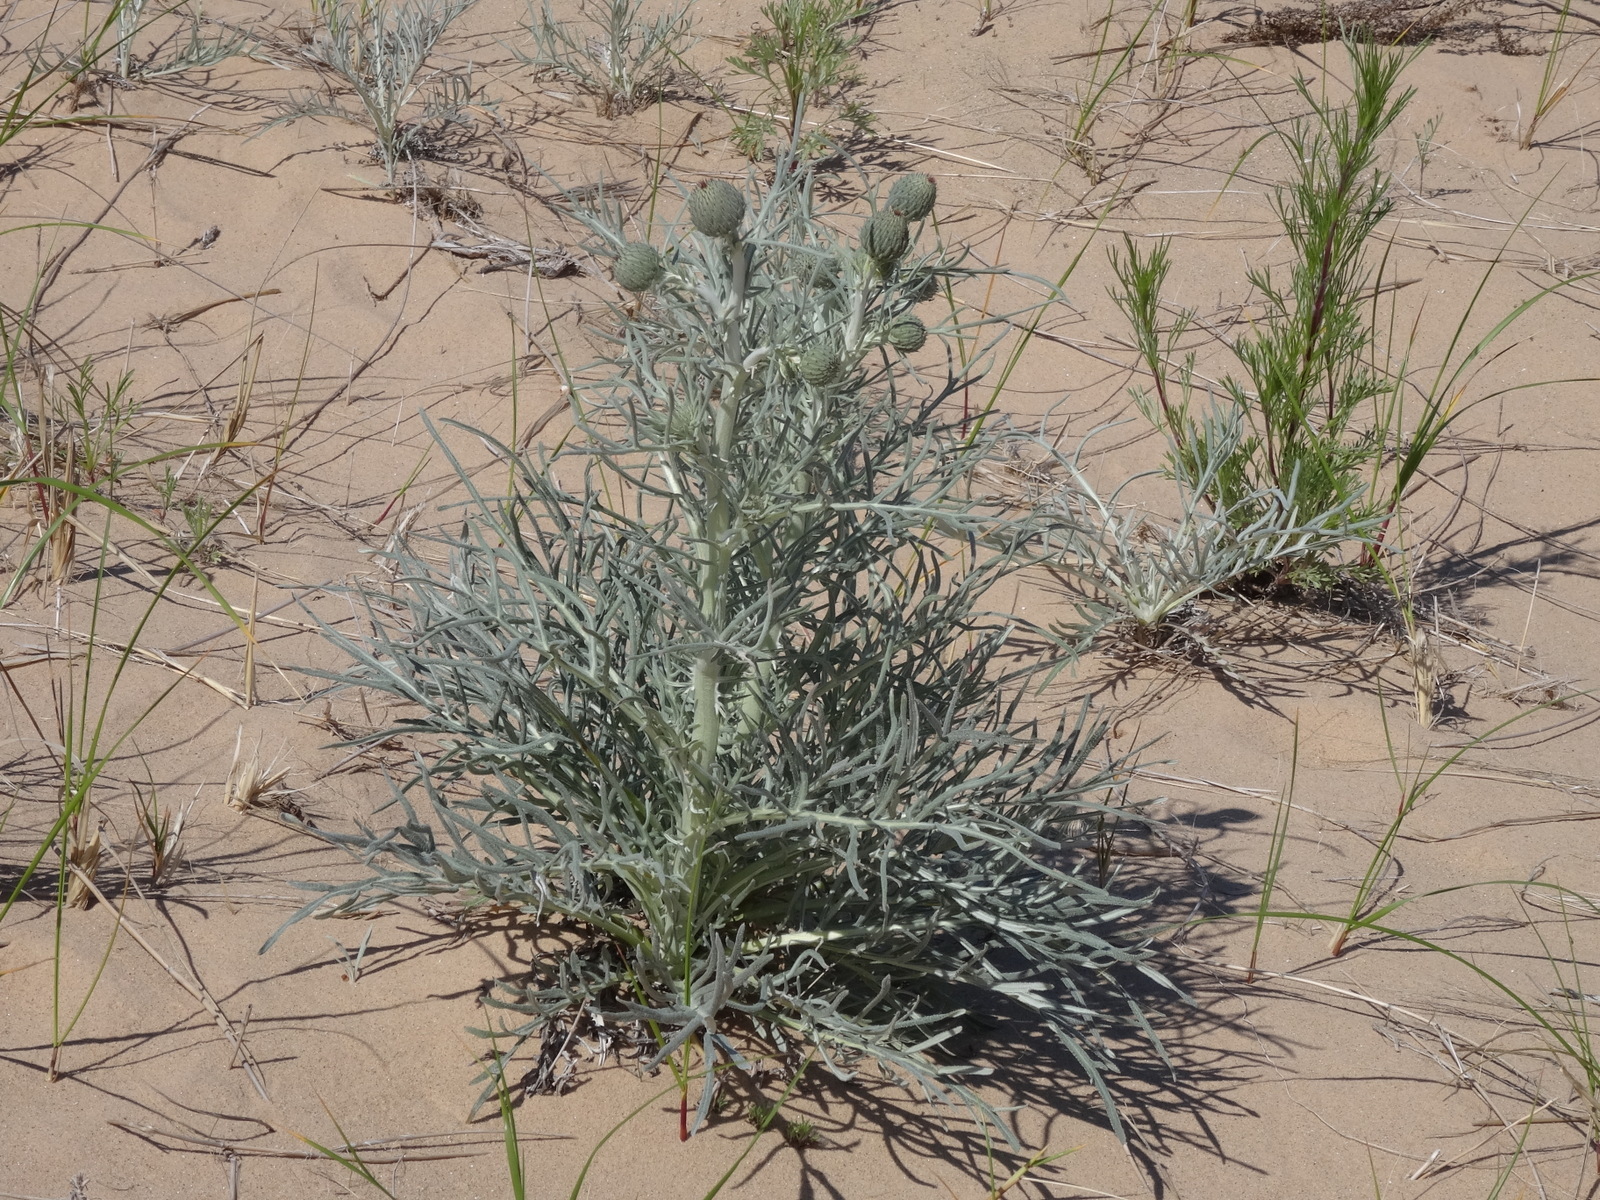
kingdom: Plantae
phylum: Tracheophyta
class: Magnoliopsida
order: Asterales
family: Asteraceae
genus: Cirsium
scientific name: Cirsium pitcheri
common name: Dune thistle
